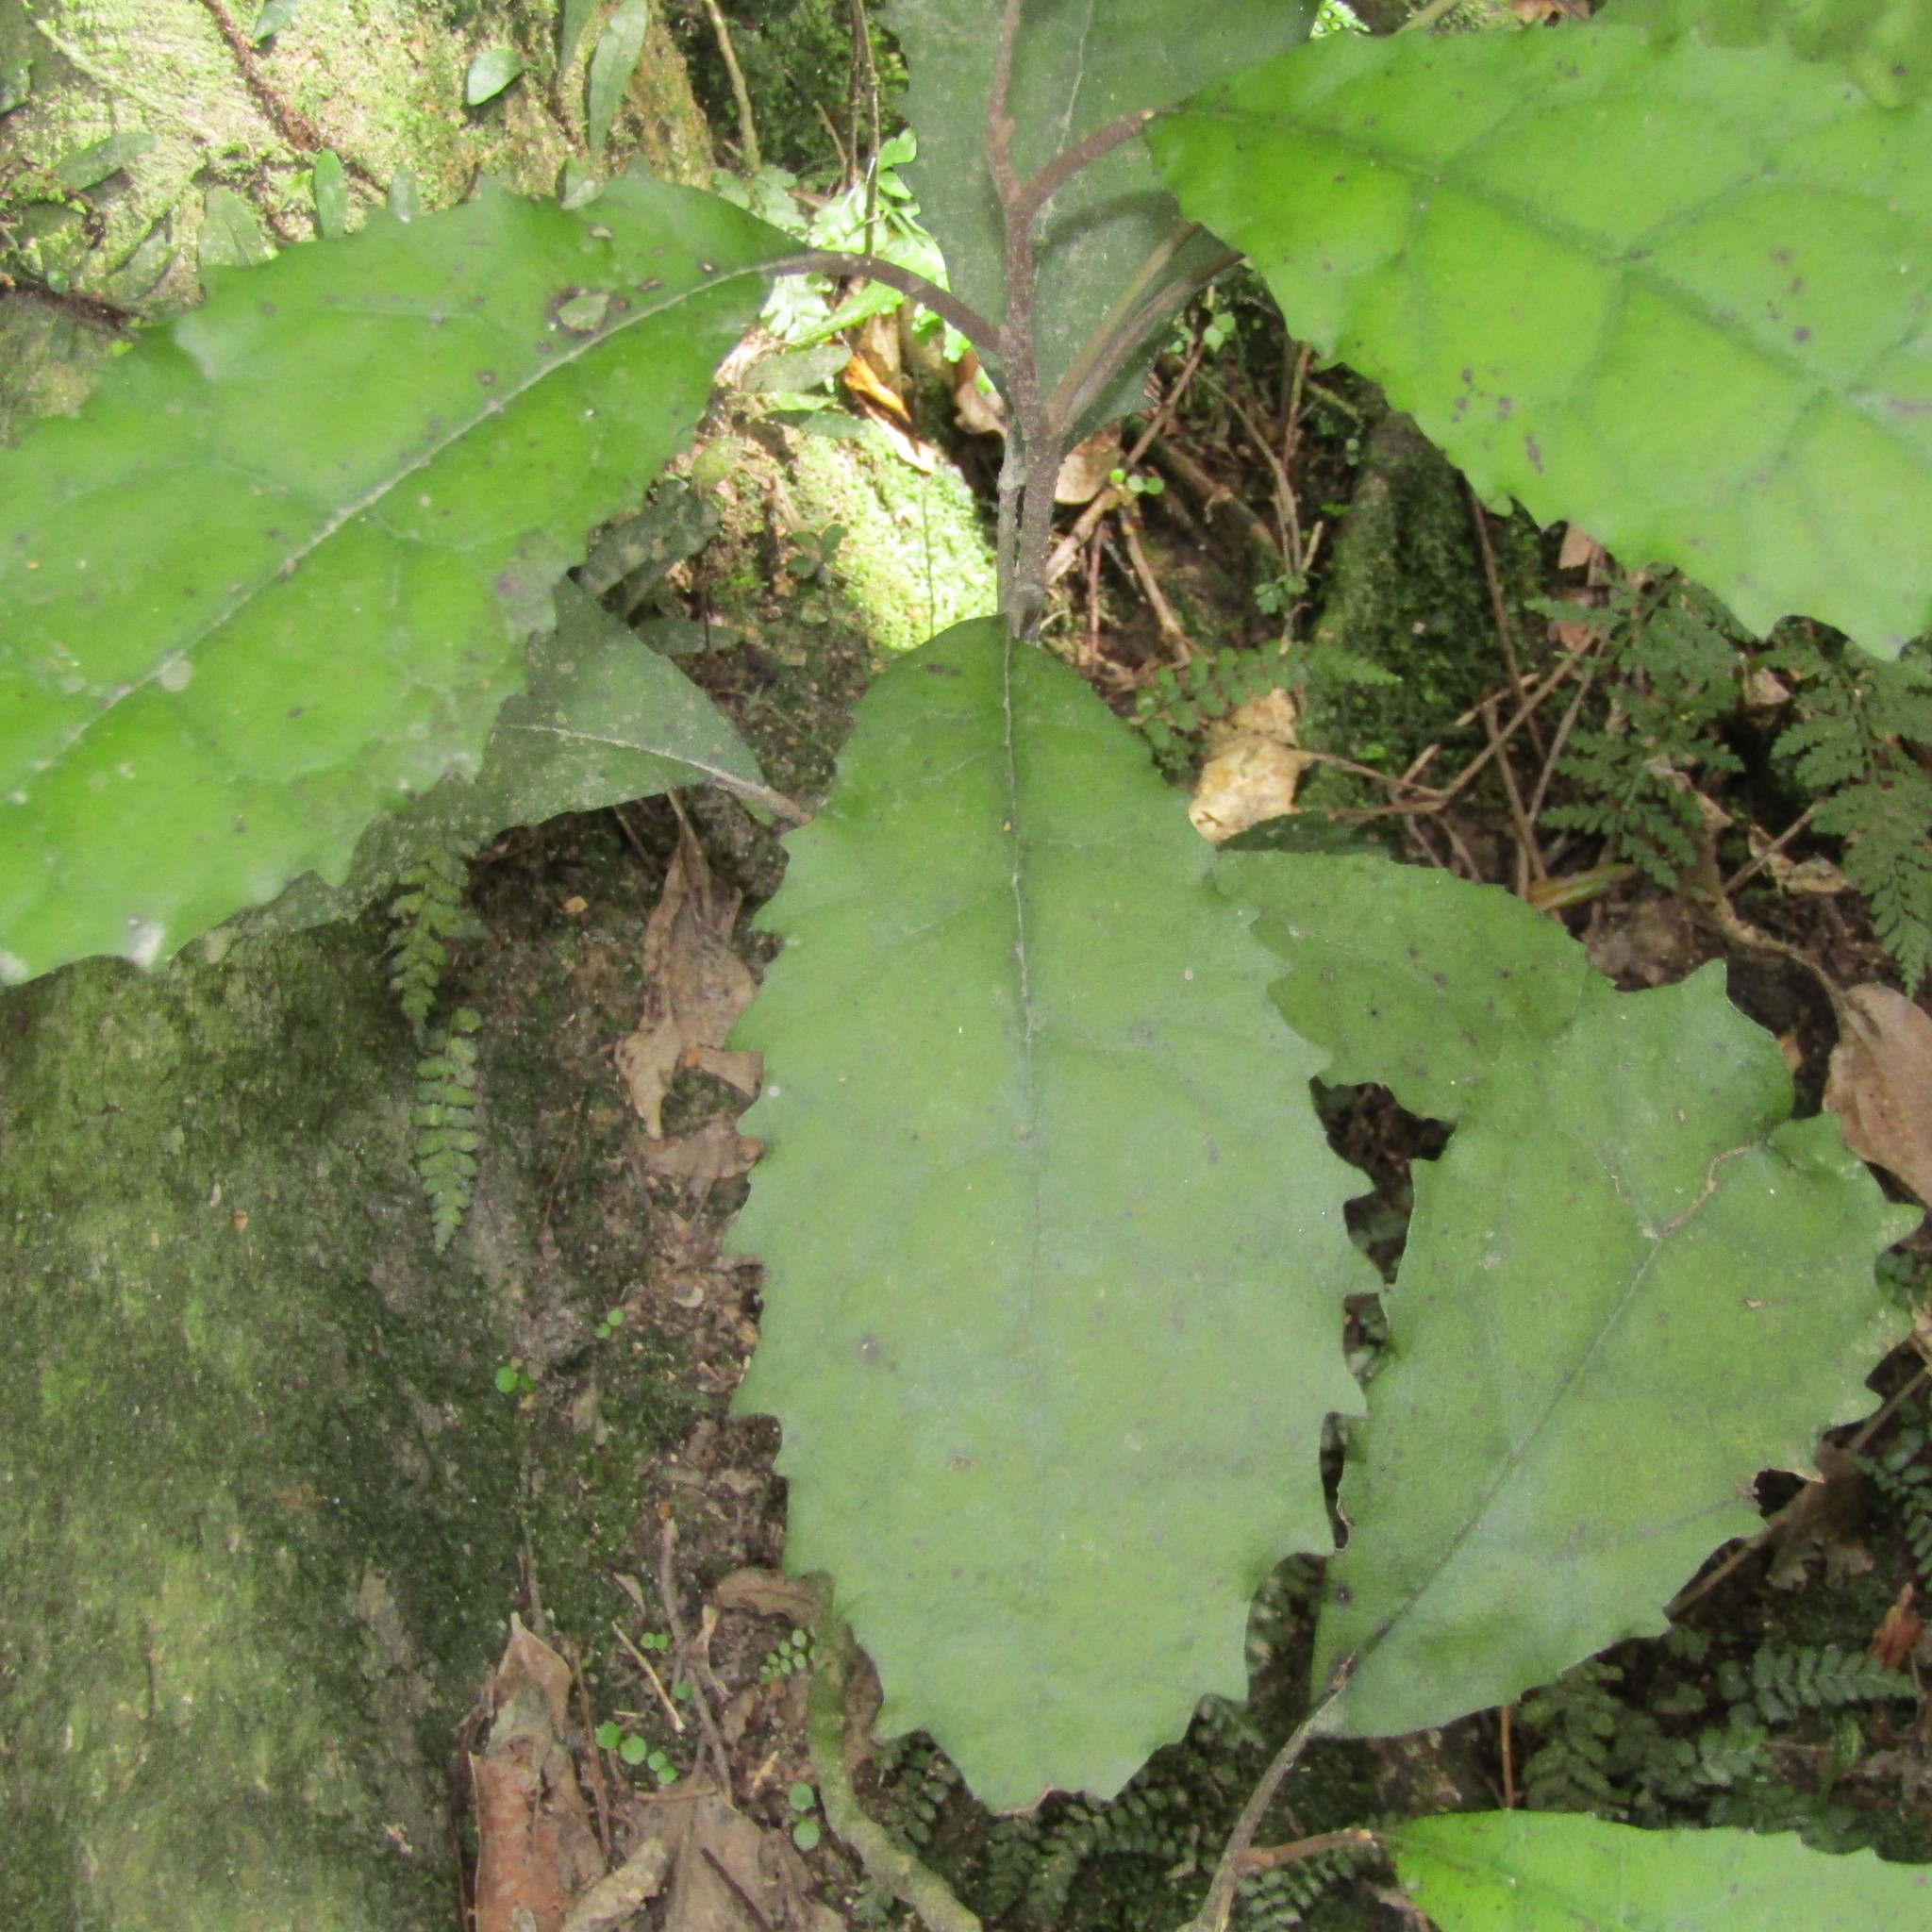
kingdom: Plantae
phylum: Tracheophyta
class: Magnoliopsida
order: Asterales
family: Asteraceae
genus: Olearia
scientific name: Olearia rani
